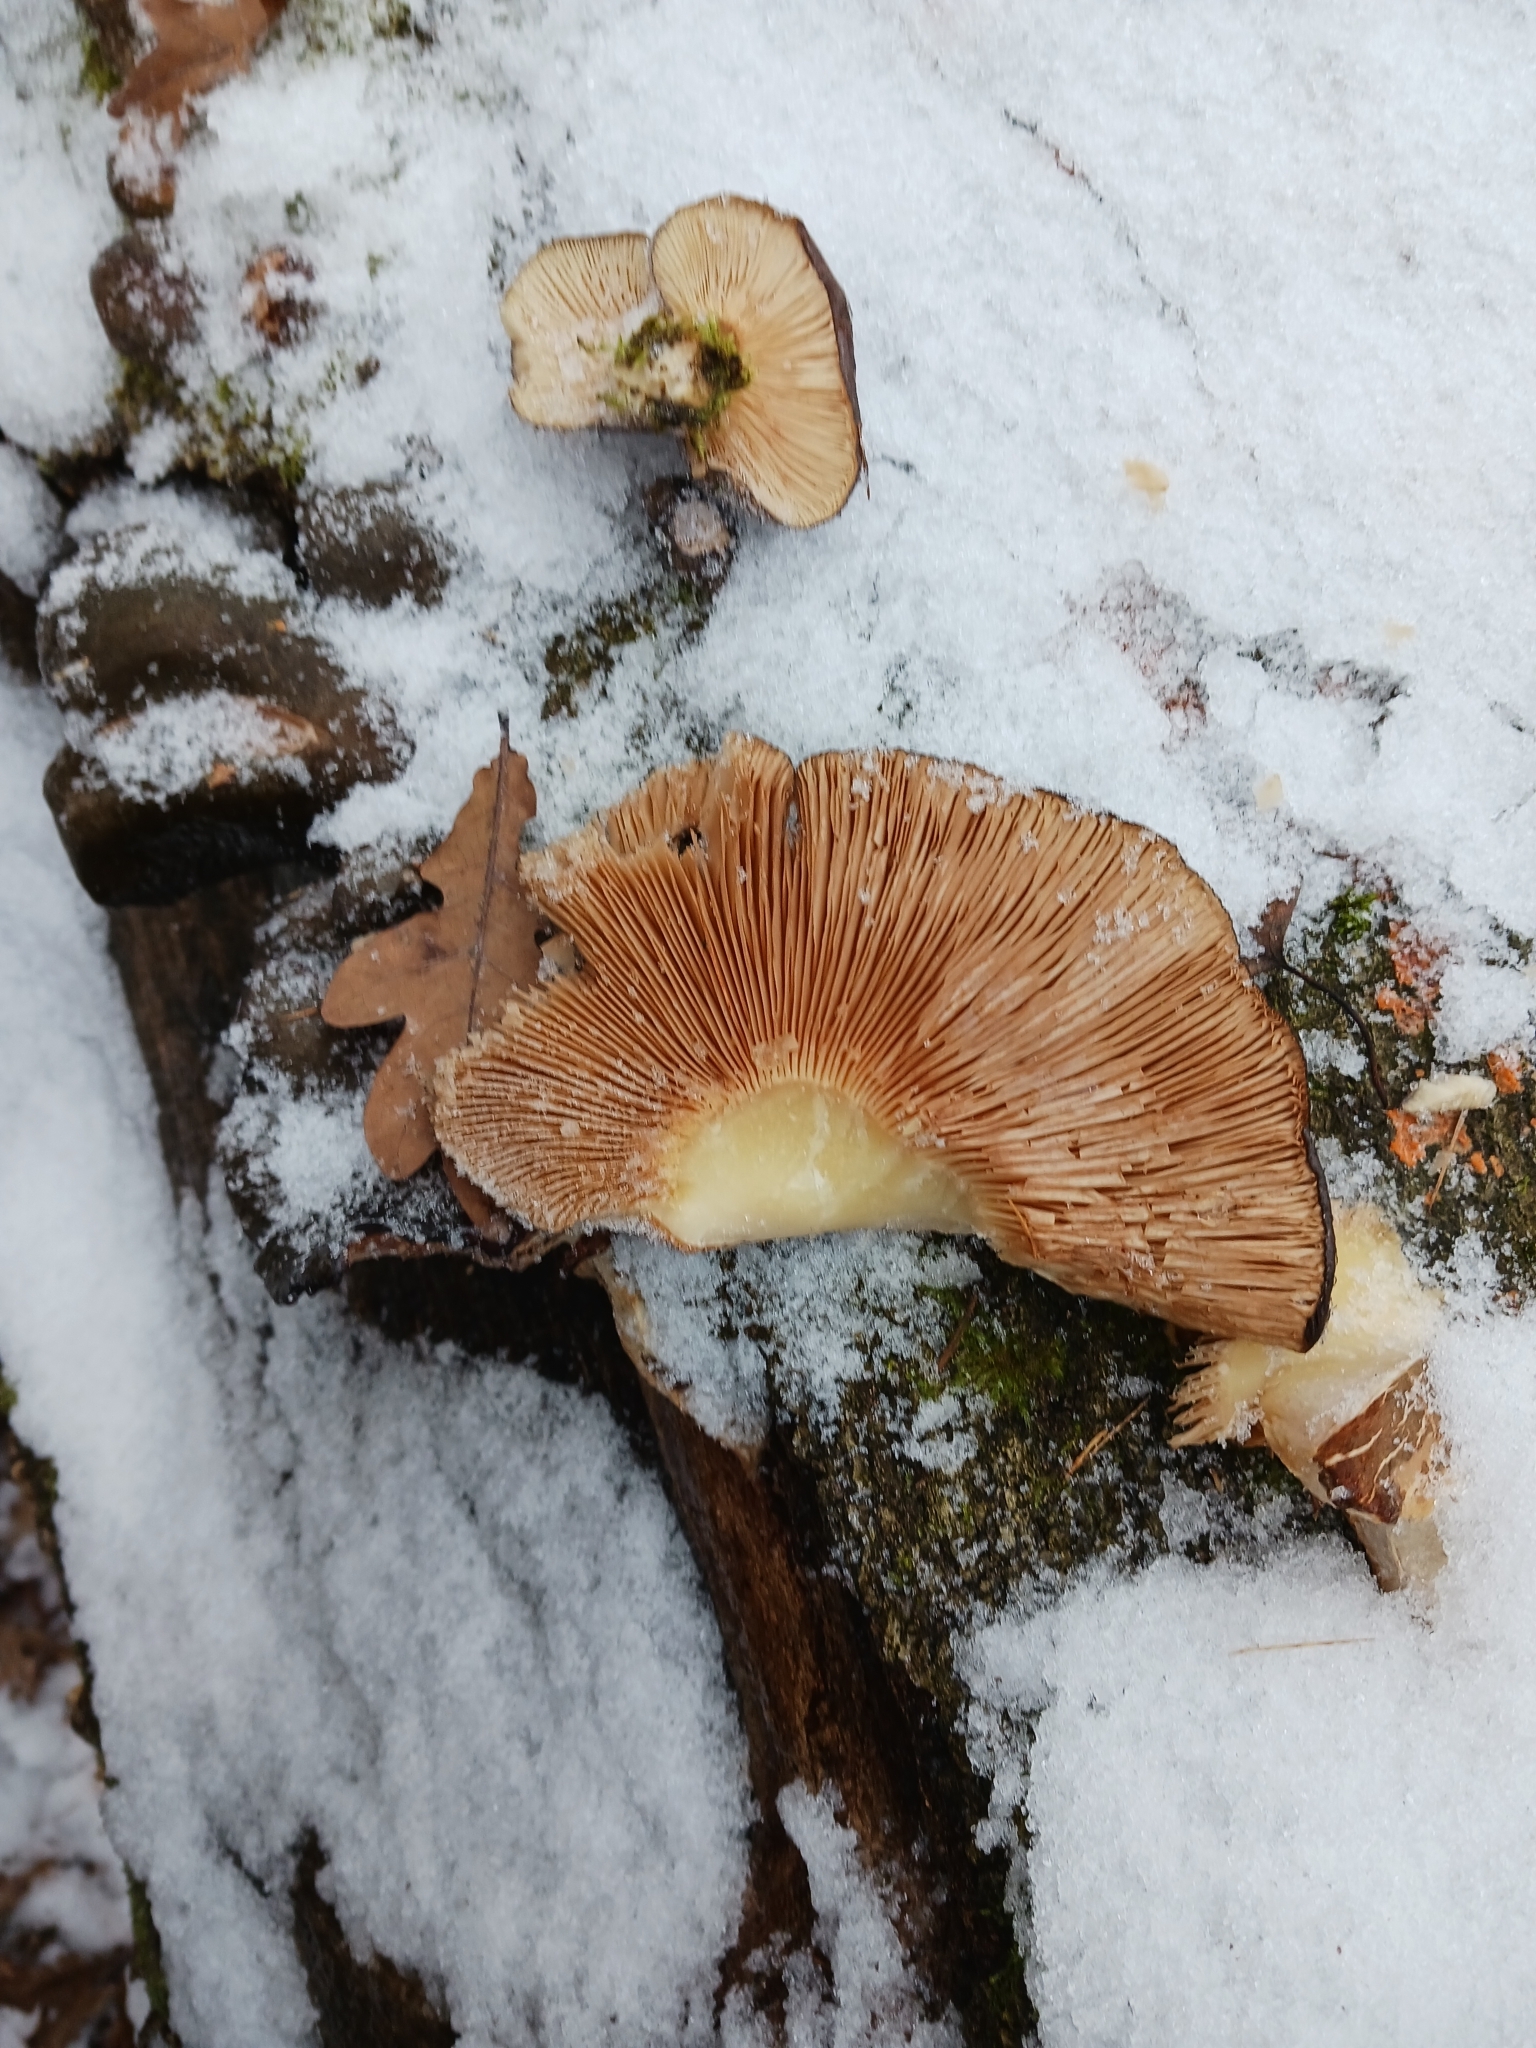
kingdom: Fungi
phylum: Basidiomycota
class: Agaricomycetes
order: Agaricales
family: Sarcomyxaceae
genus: Sarcomyxa
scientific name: Sarcomyxa serotina
